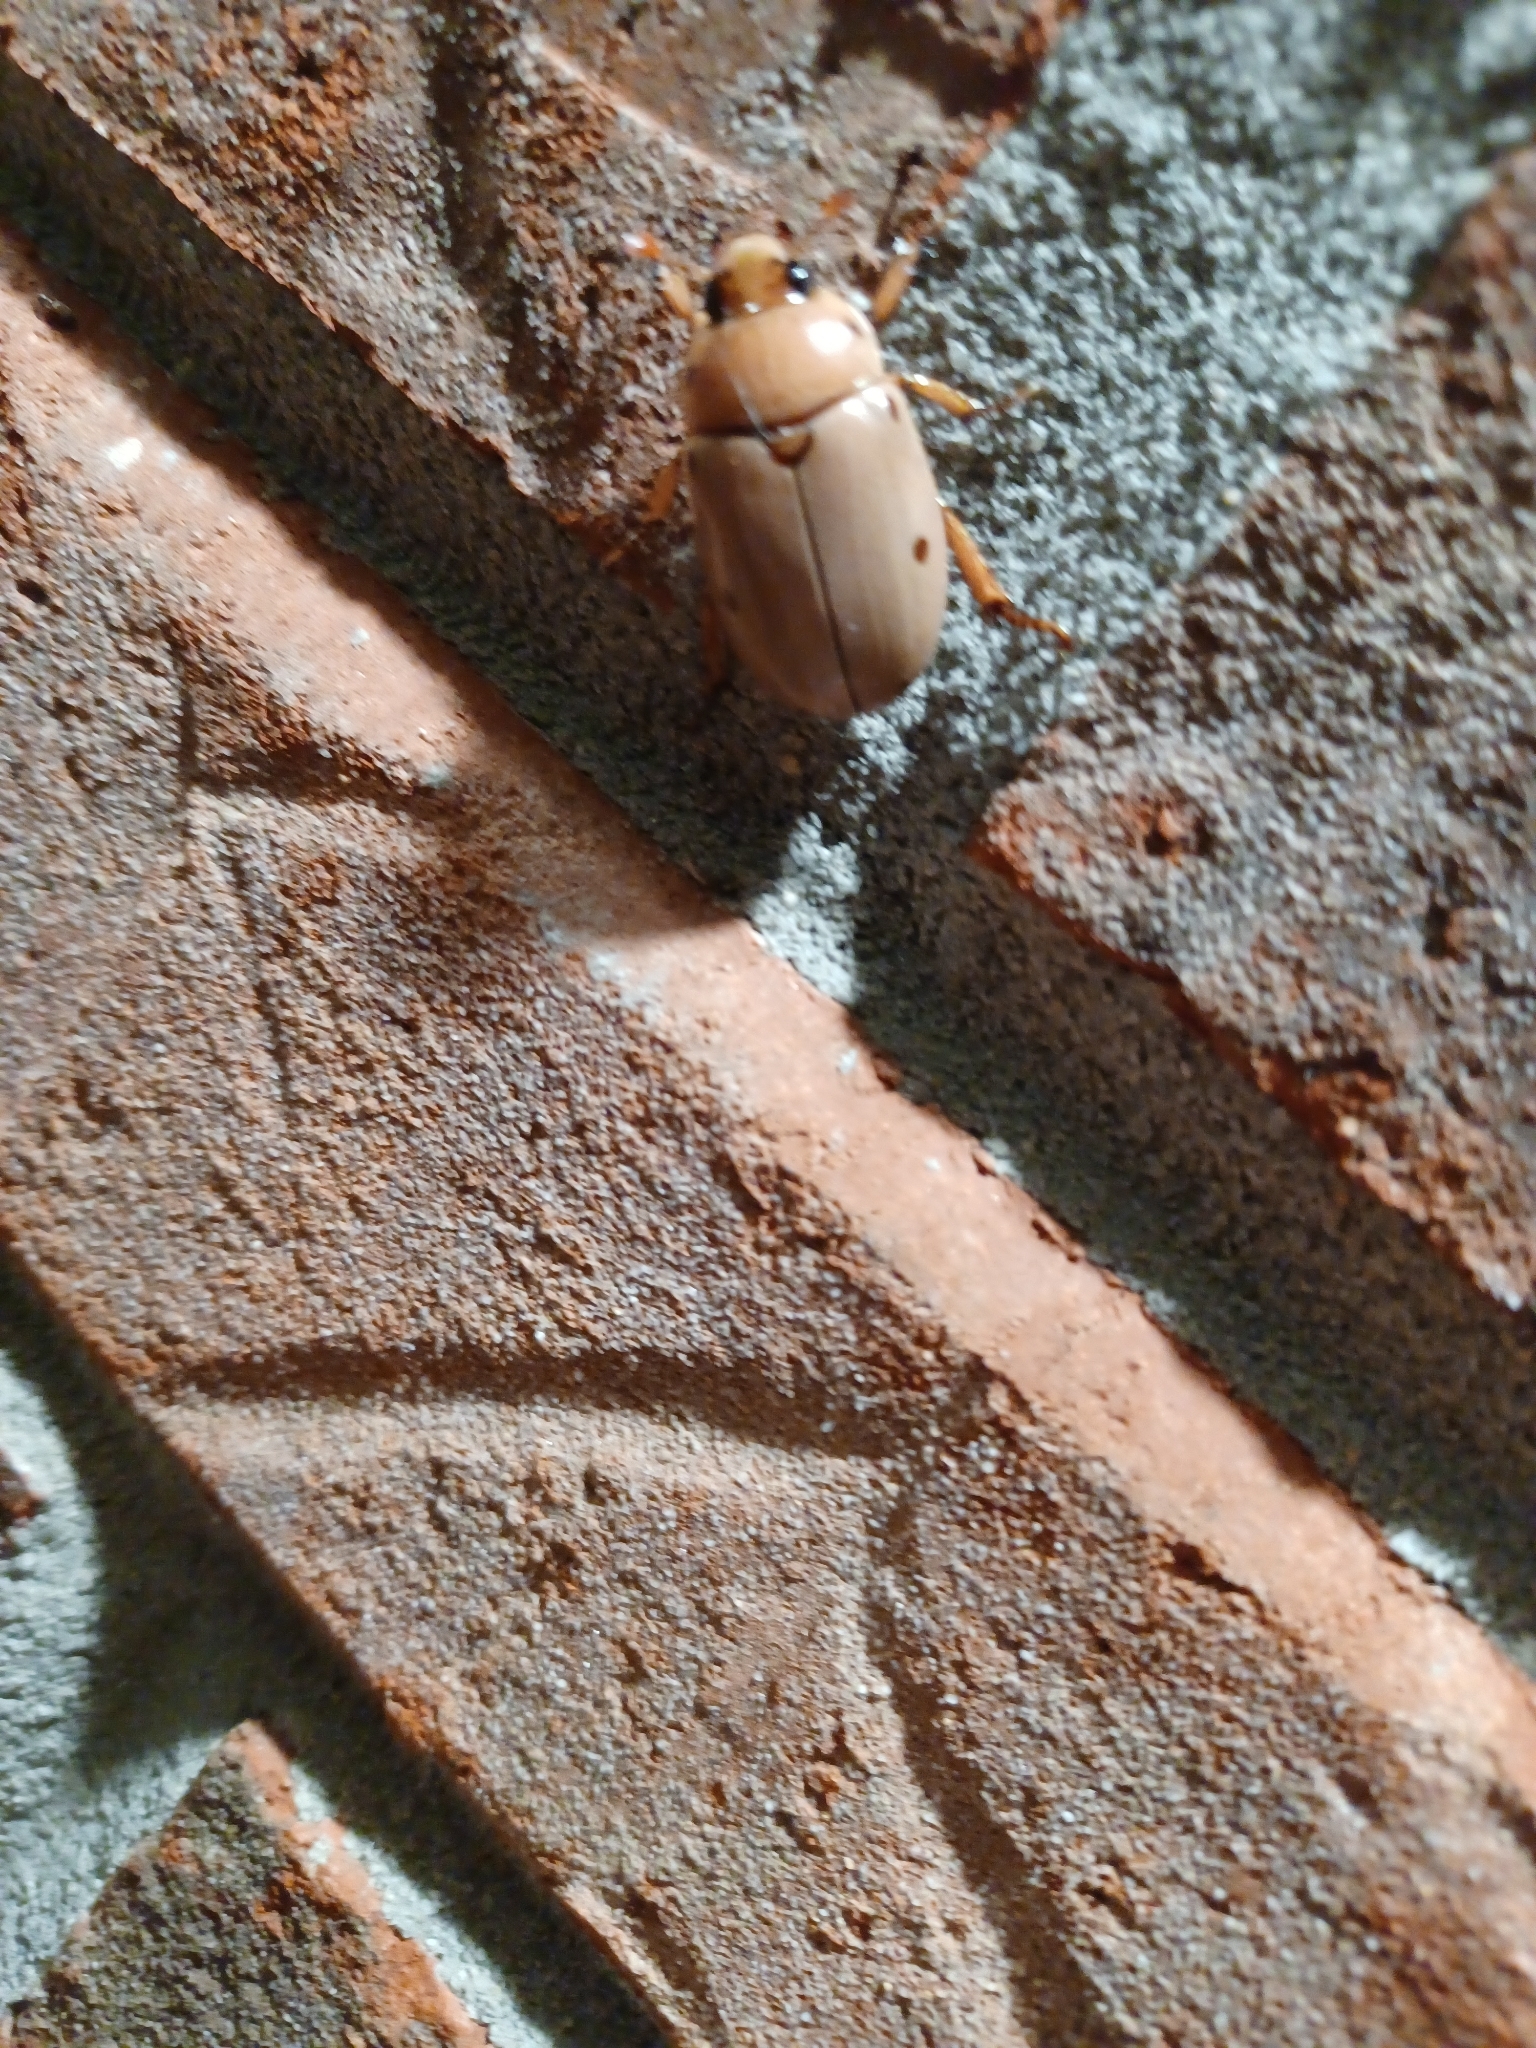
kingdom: Animalia
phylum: Arthropoda
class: Insecta
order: Coleoptera
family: Scarabaeidae
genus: Pelidnota
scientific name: Pelidnota punctata
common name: Grapevine beetle
